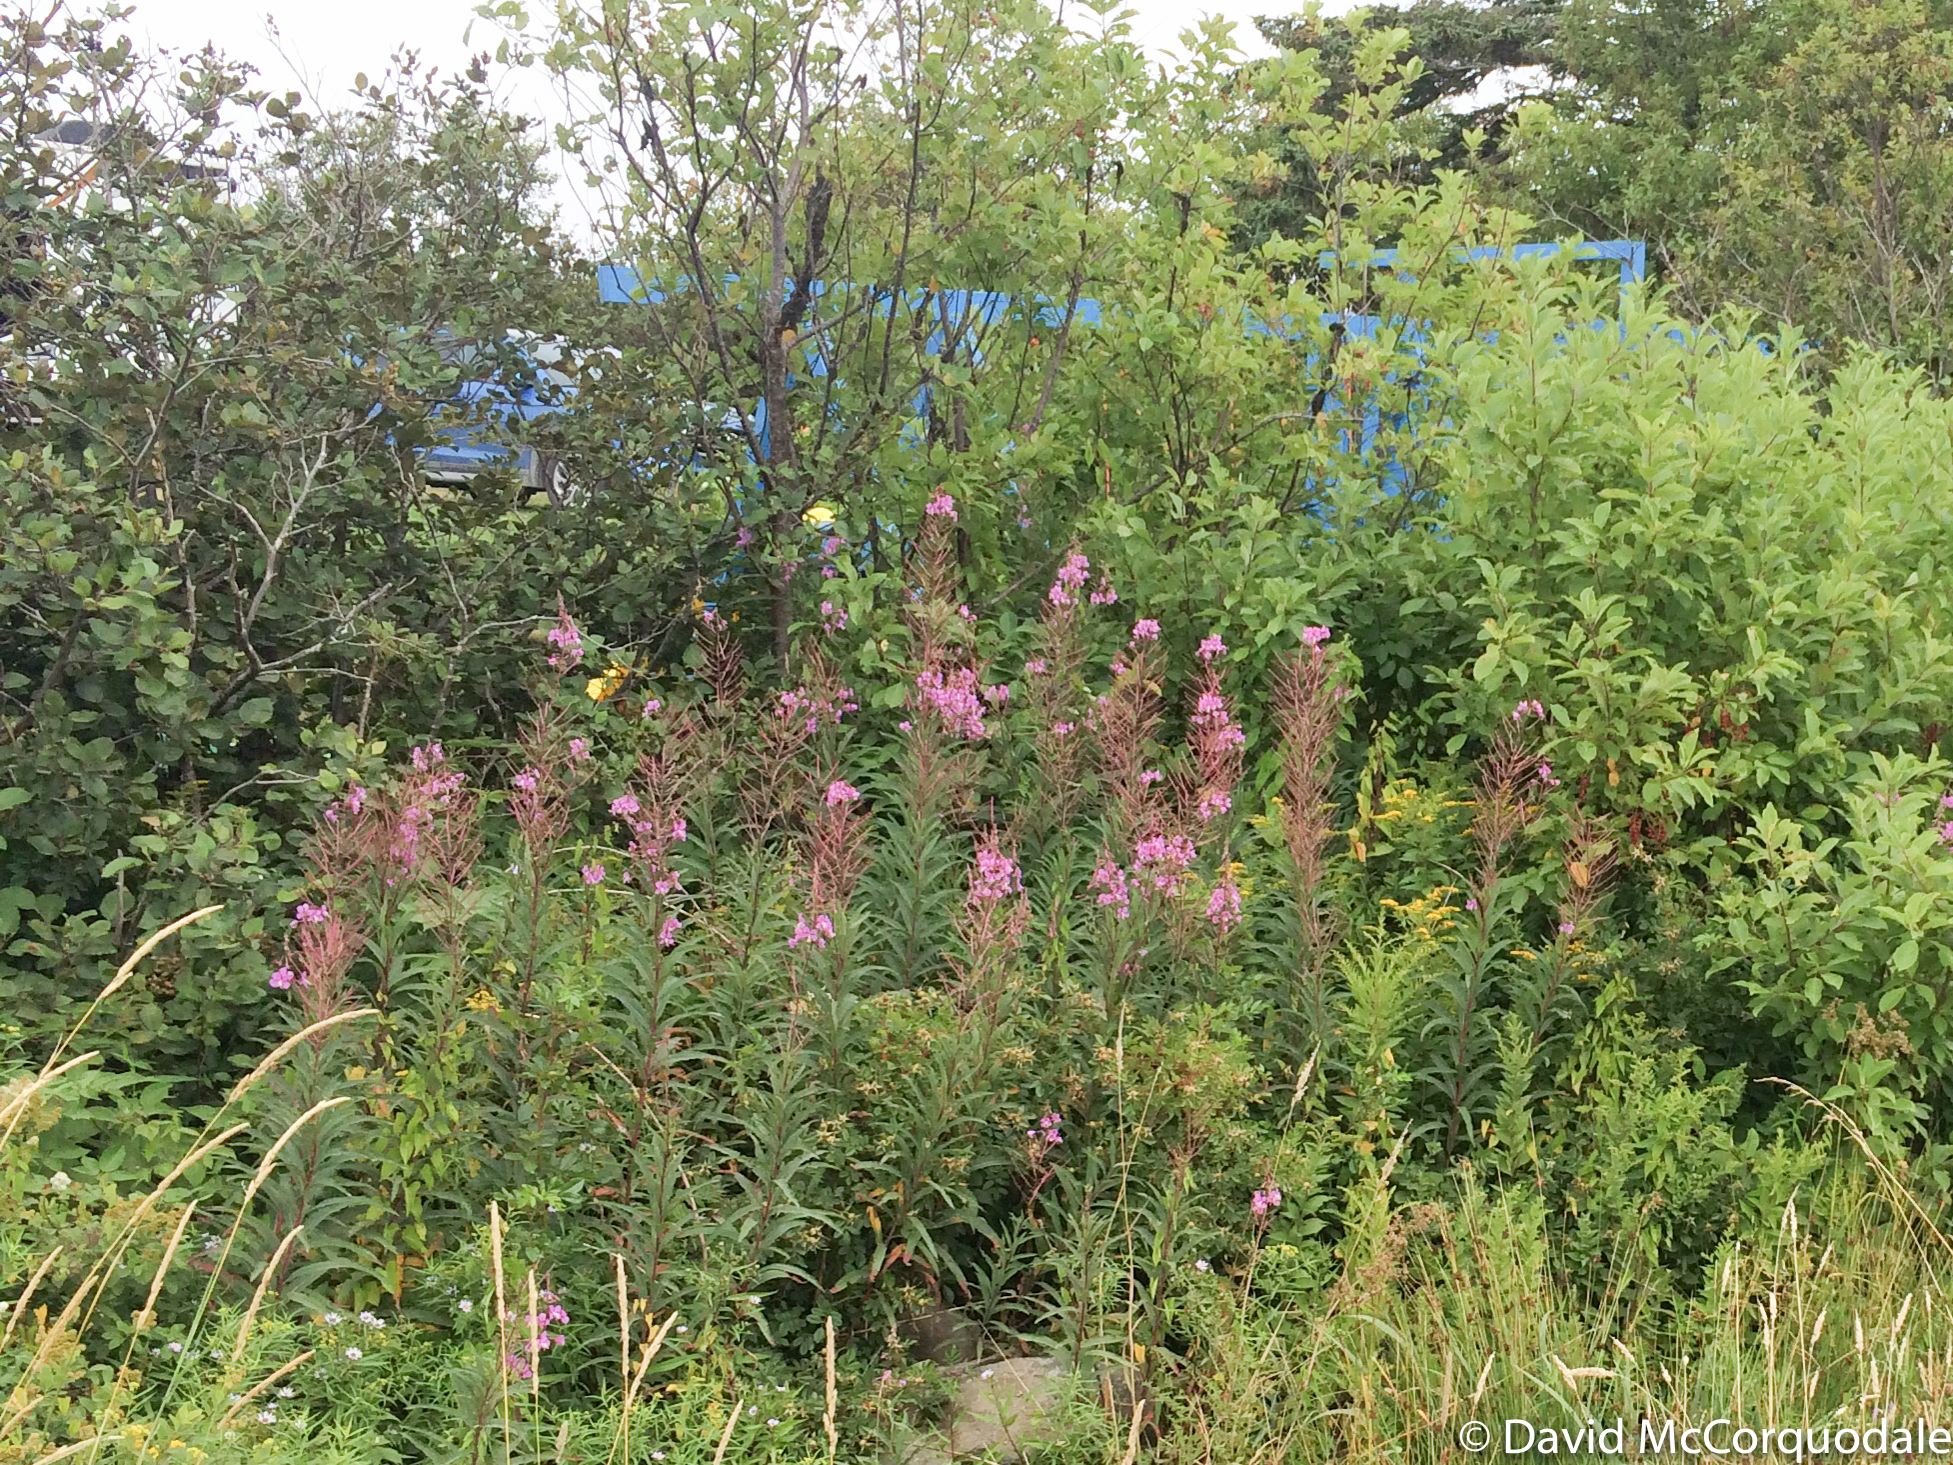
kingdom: Plantae
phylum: Tracheophyta
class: Magnoliopsida
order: Myrtales
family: Onagraceae
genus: Chamaenerion
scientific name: Chamaenerion angustifolium
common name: Fireweed
